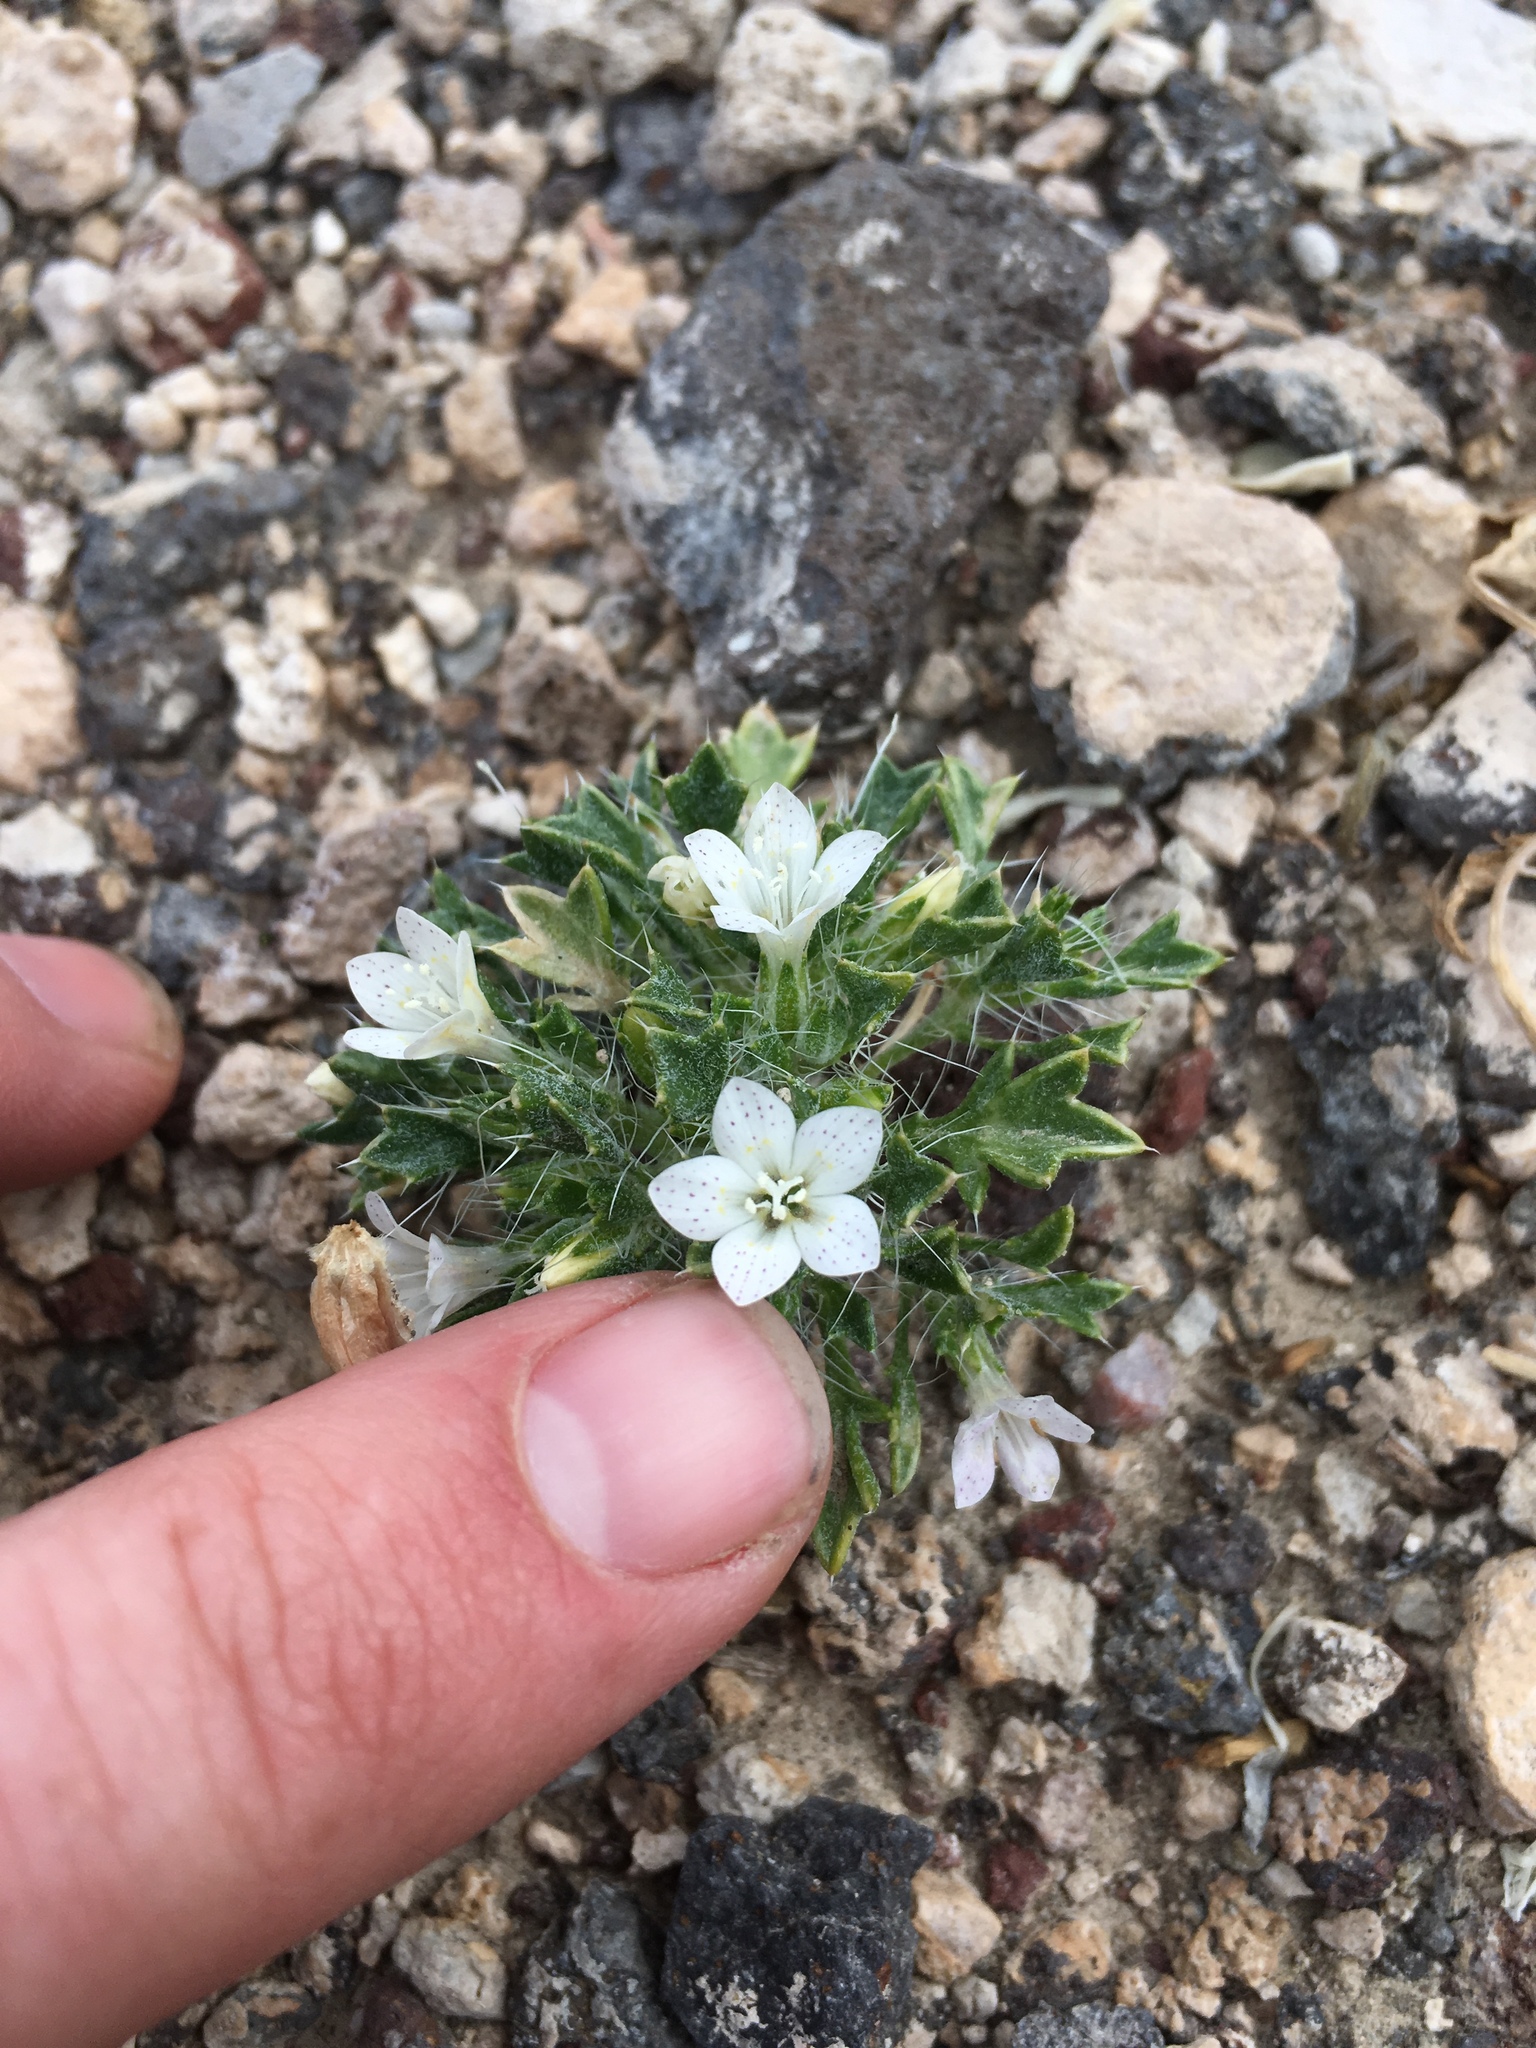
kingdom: Plantae
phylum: Tracheophyta
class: Magnoliopsida
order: Ericales
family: Polemoniaceae
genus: Langloisia
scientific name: Langloisia setosissima
